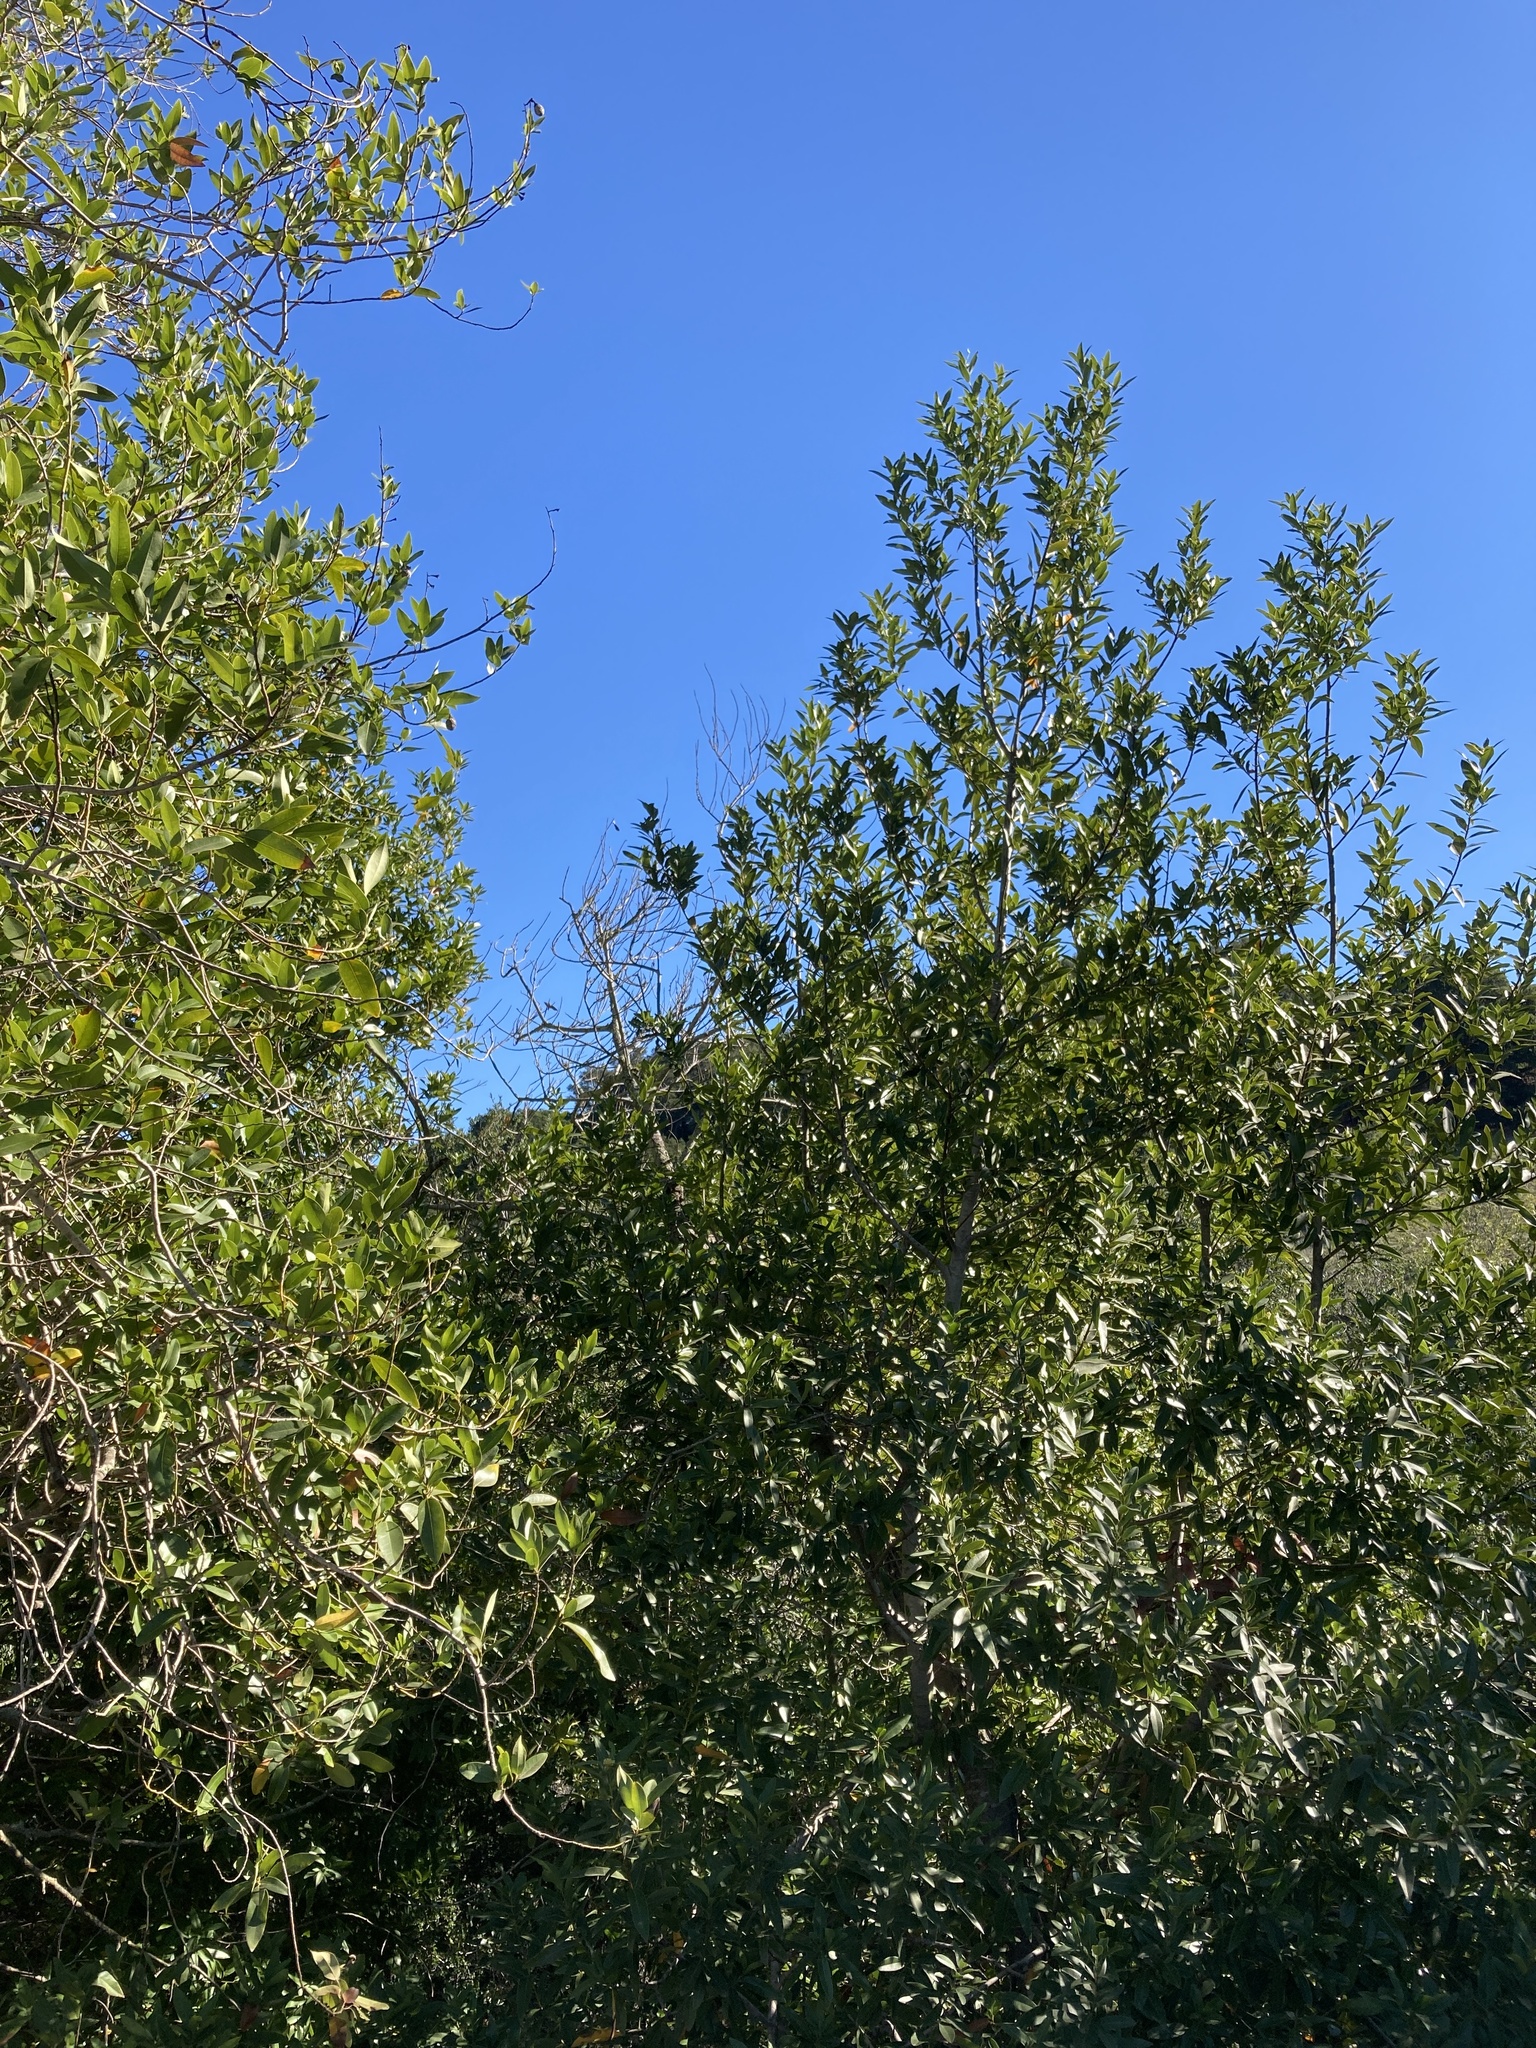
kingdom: Plantae
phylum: Tracheophyta
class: Magnoliopsida
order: Laurales
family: Lauraceae
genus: Umbellularia
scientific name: Umbellularia californica
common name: California bay
